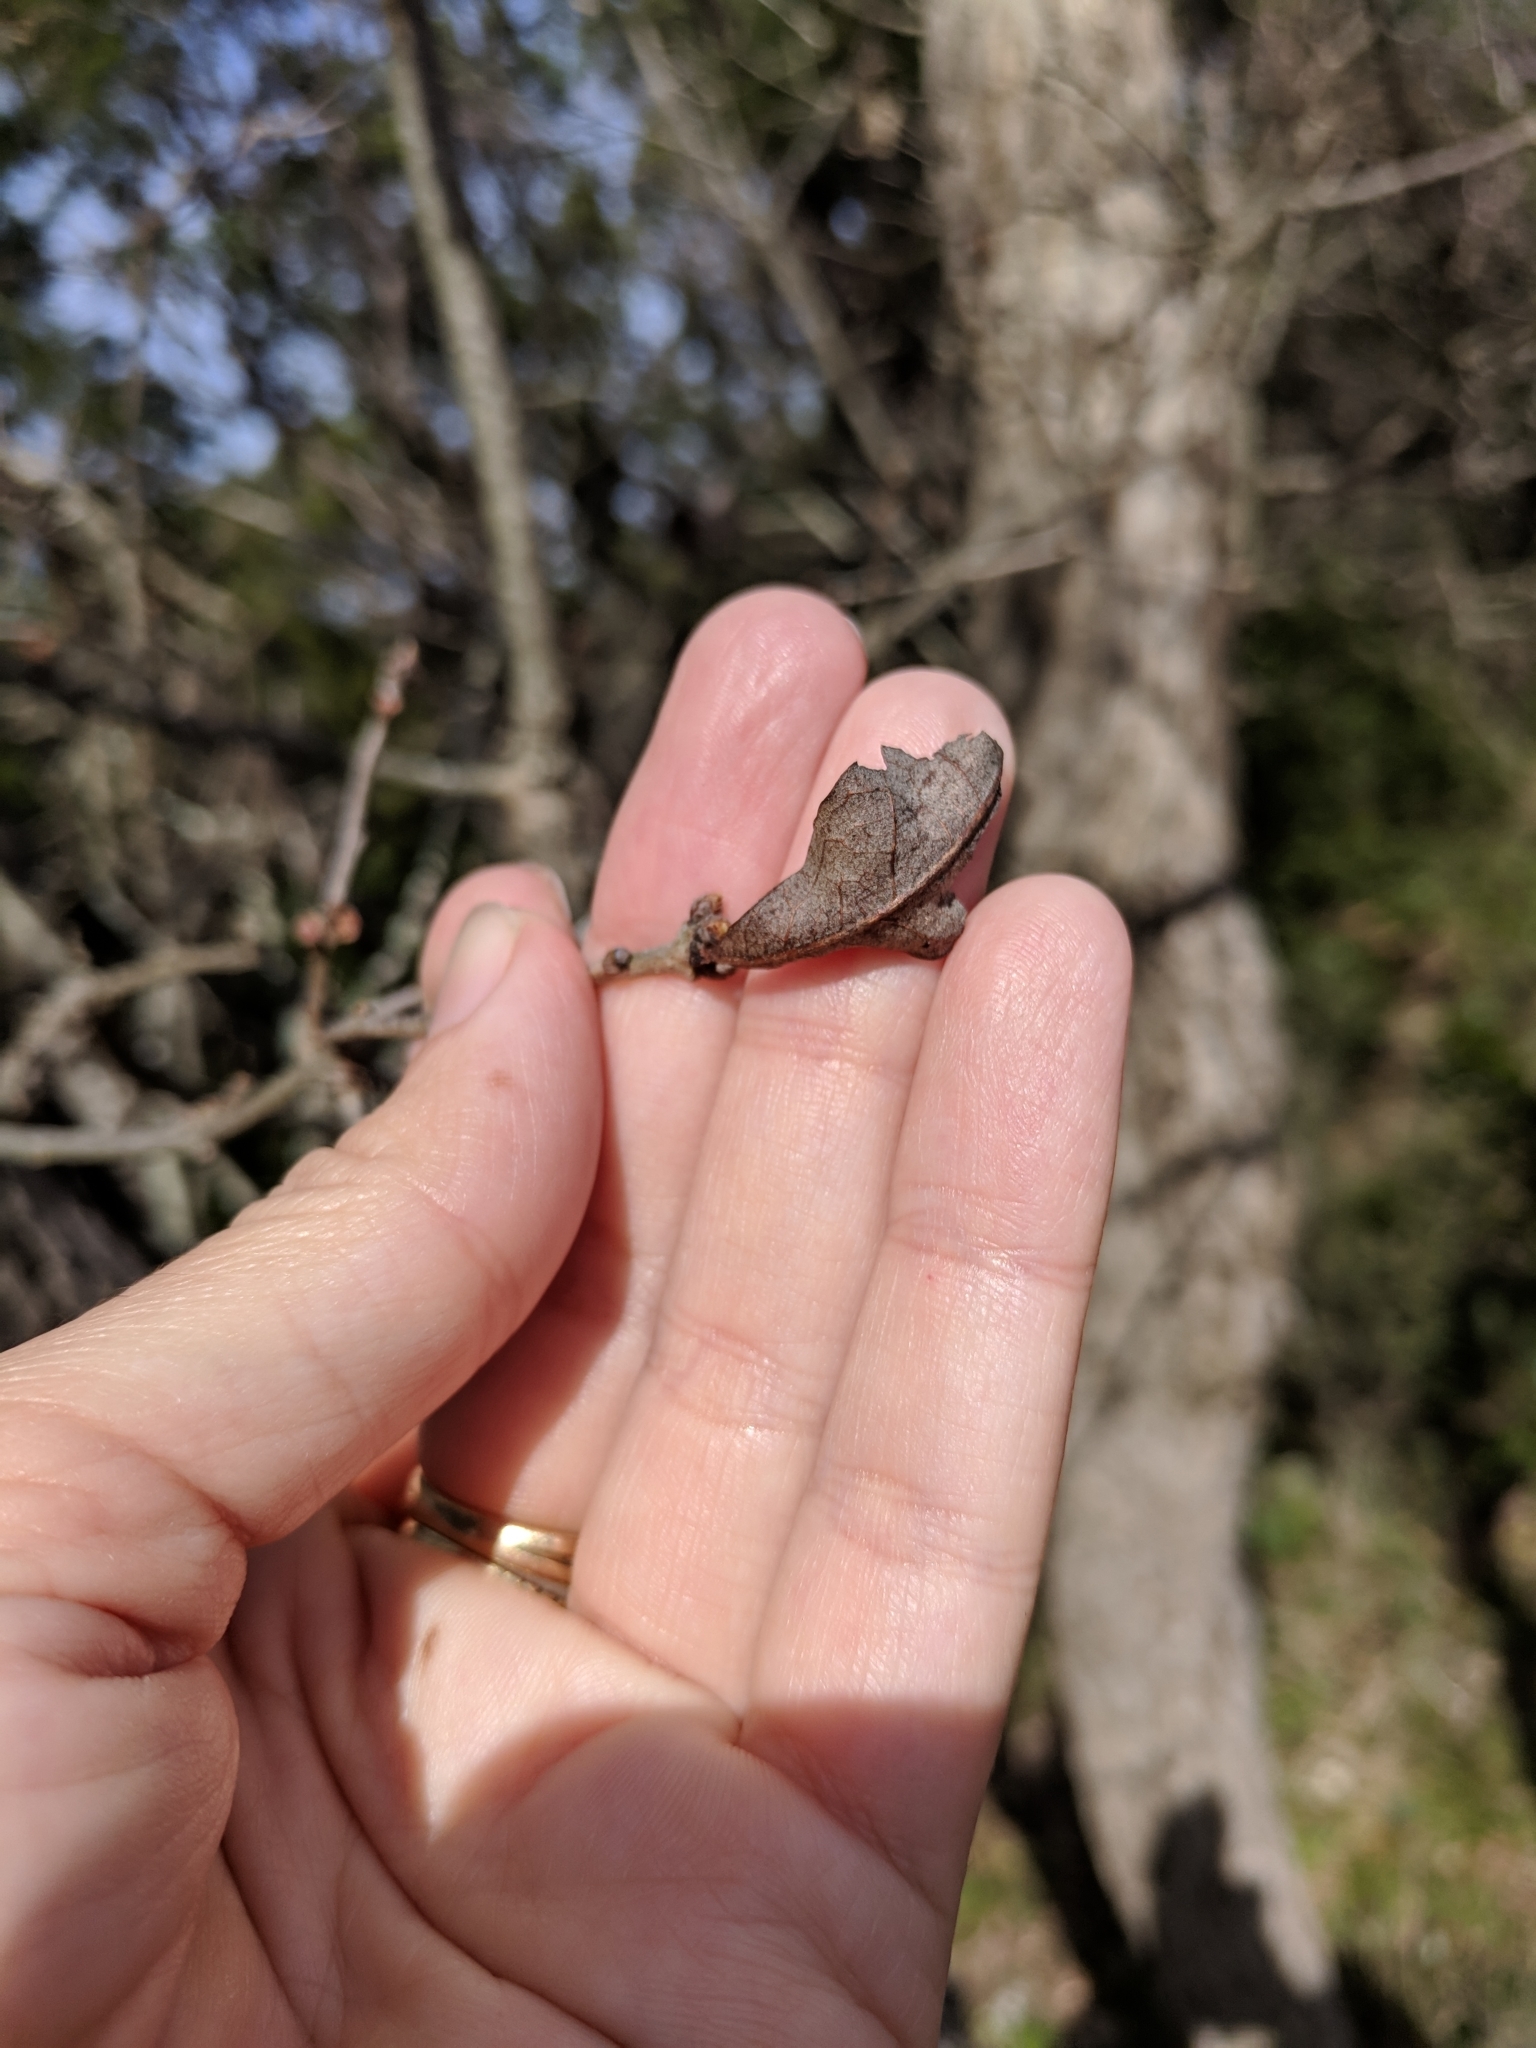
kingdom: Plantae
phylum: Tracheophyta
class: Magnoliopsida
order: Fagales
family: Fagaceae
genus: Quercus
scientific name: Quercus sinuata
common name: Durand oak
